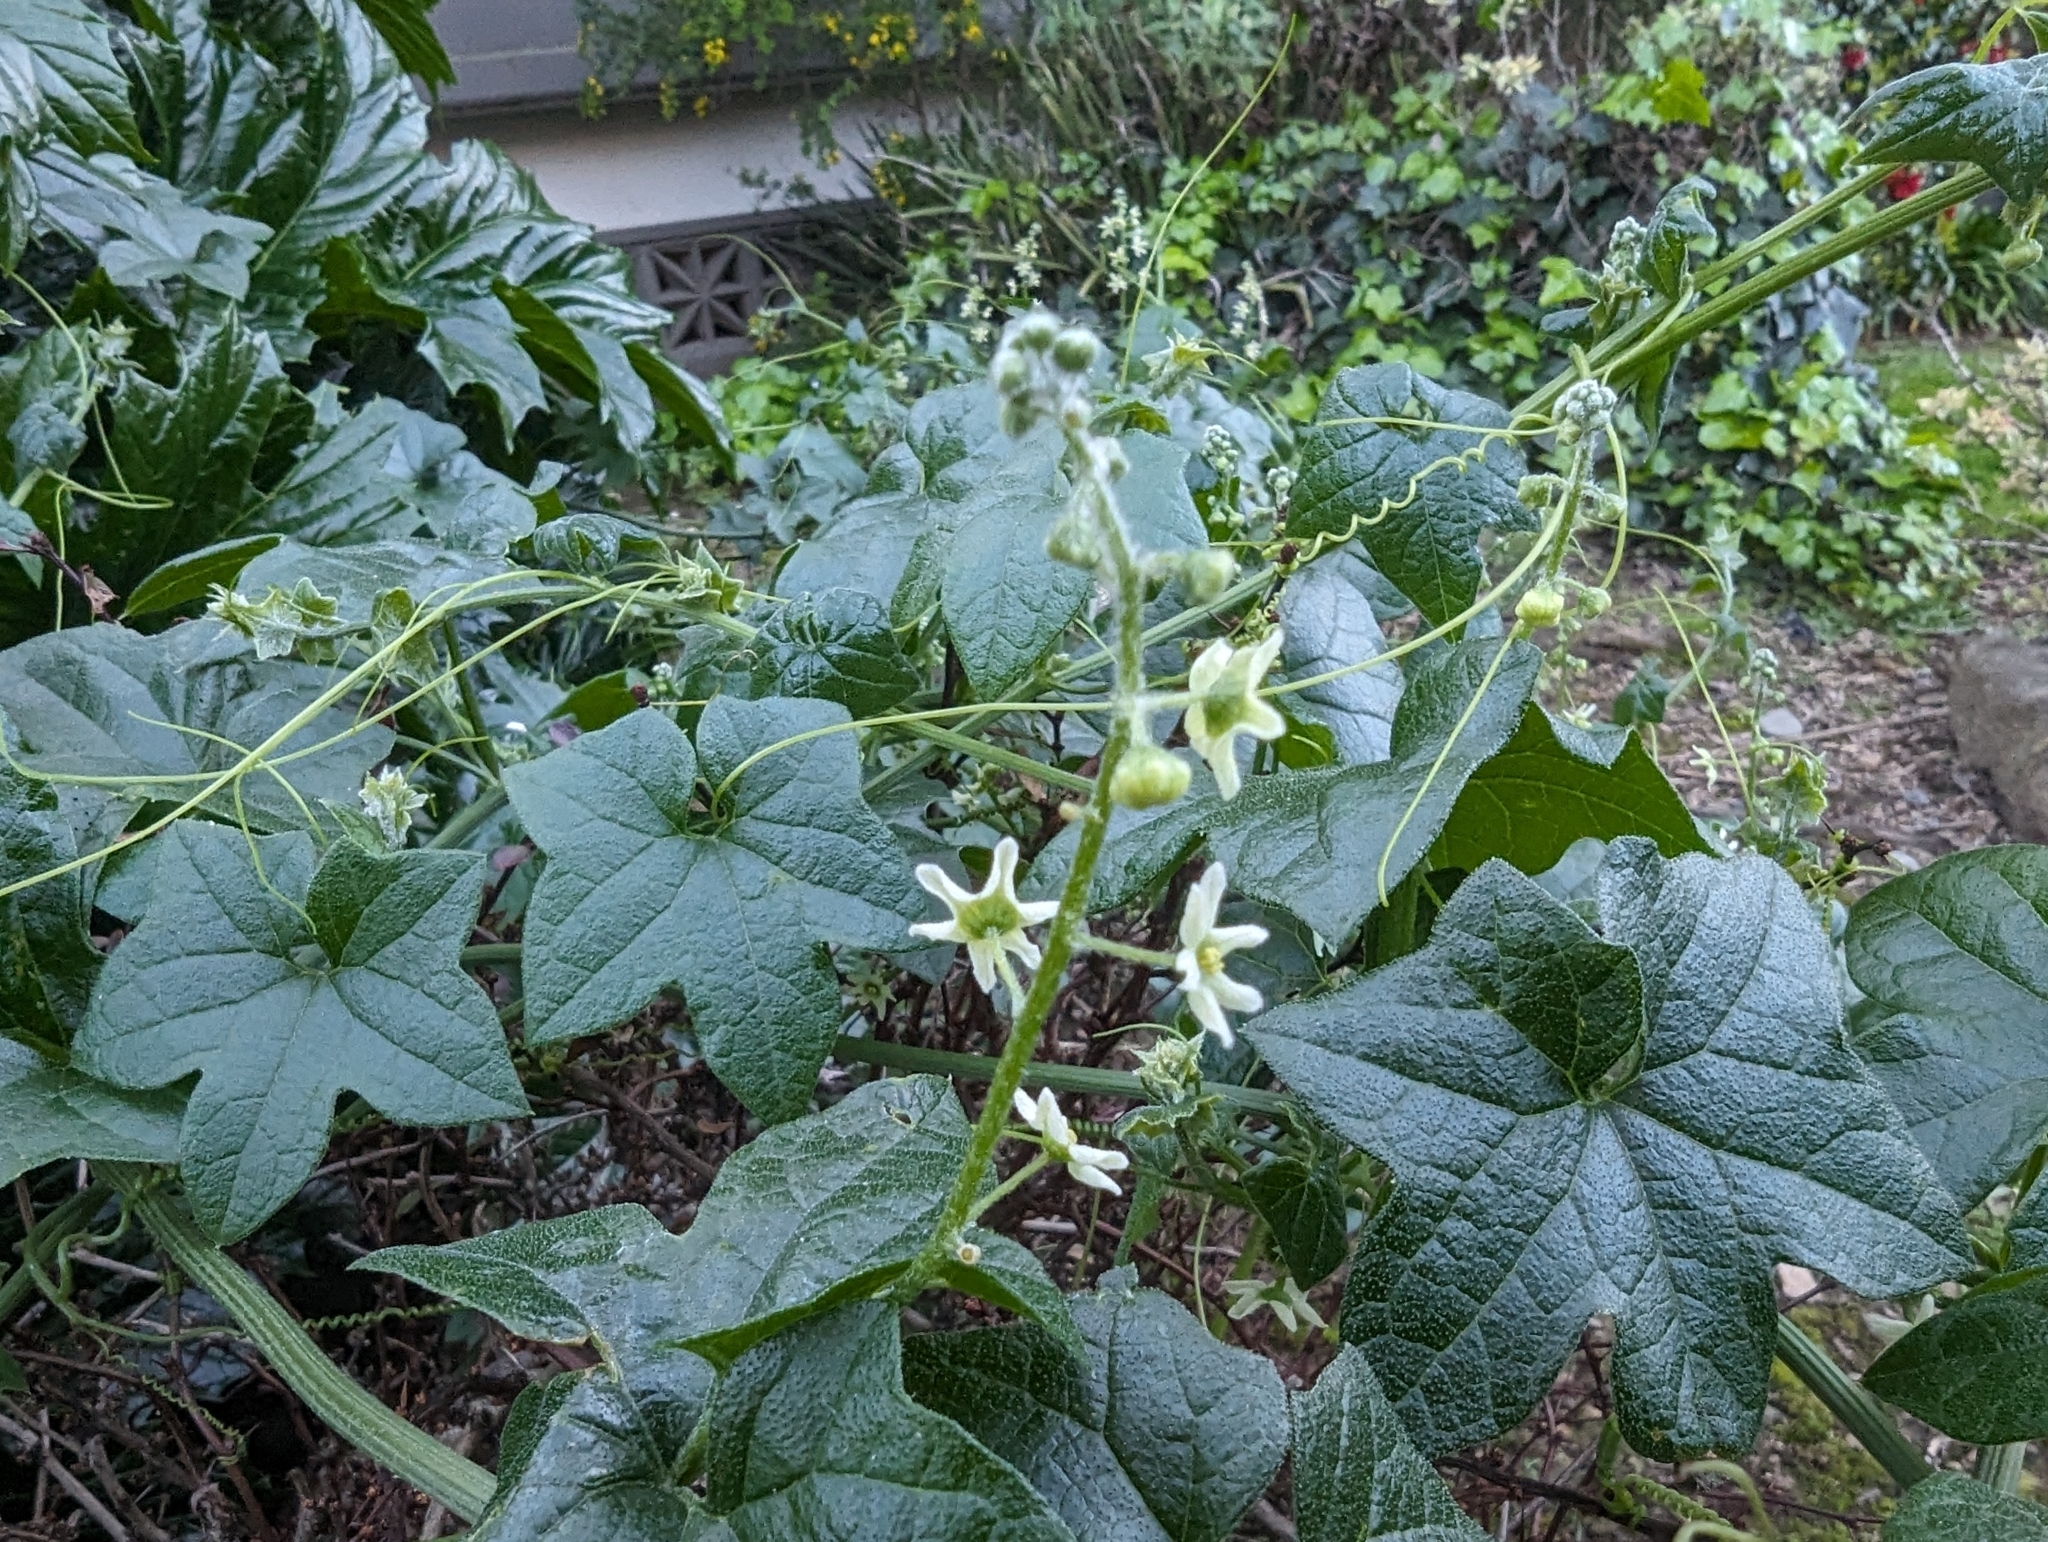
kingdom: Plantae
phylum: Tracheophyta
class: Magnoliopsida
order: Cucurbitales
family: Cucurbitaceae
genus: Marah
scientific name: Marah fabacea
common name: California manroot
